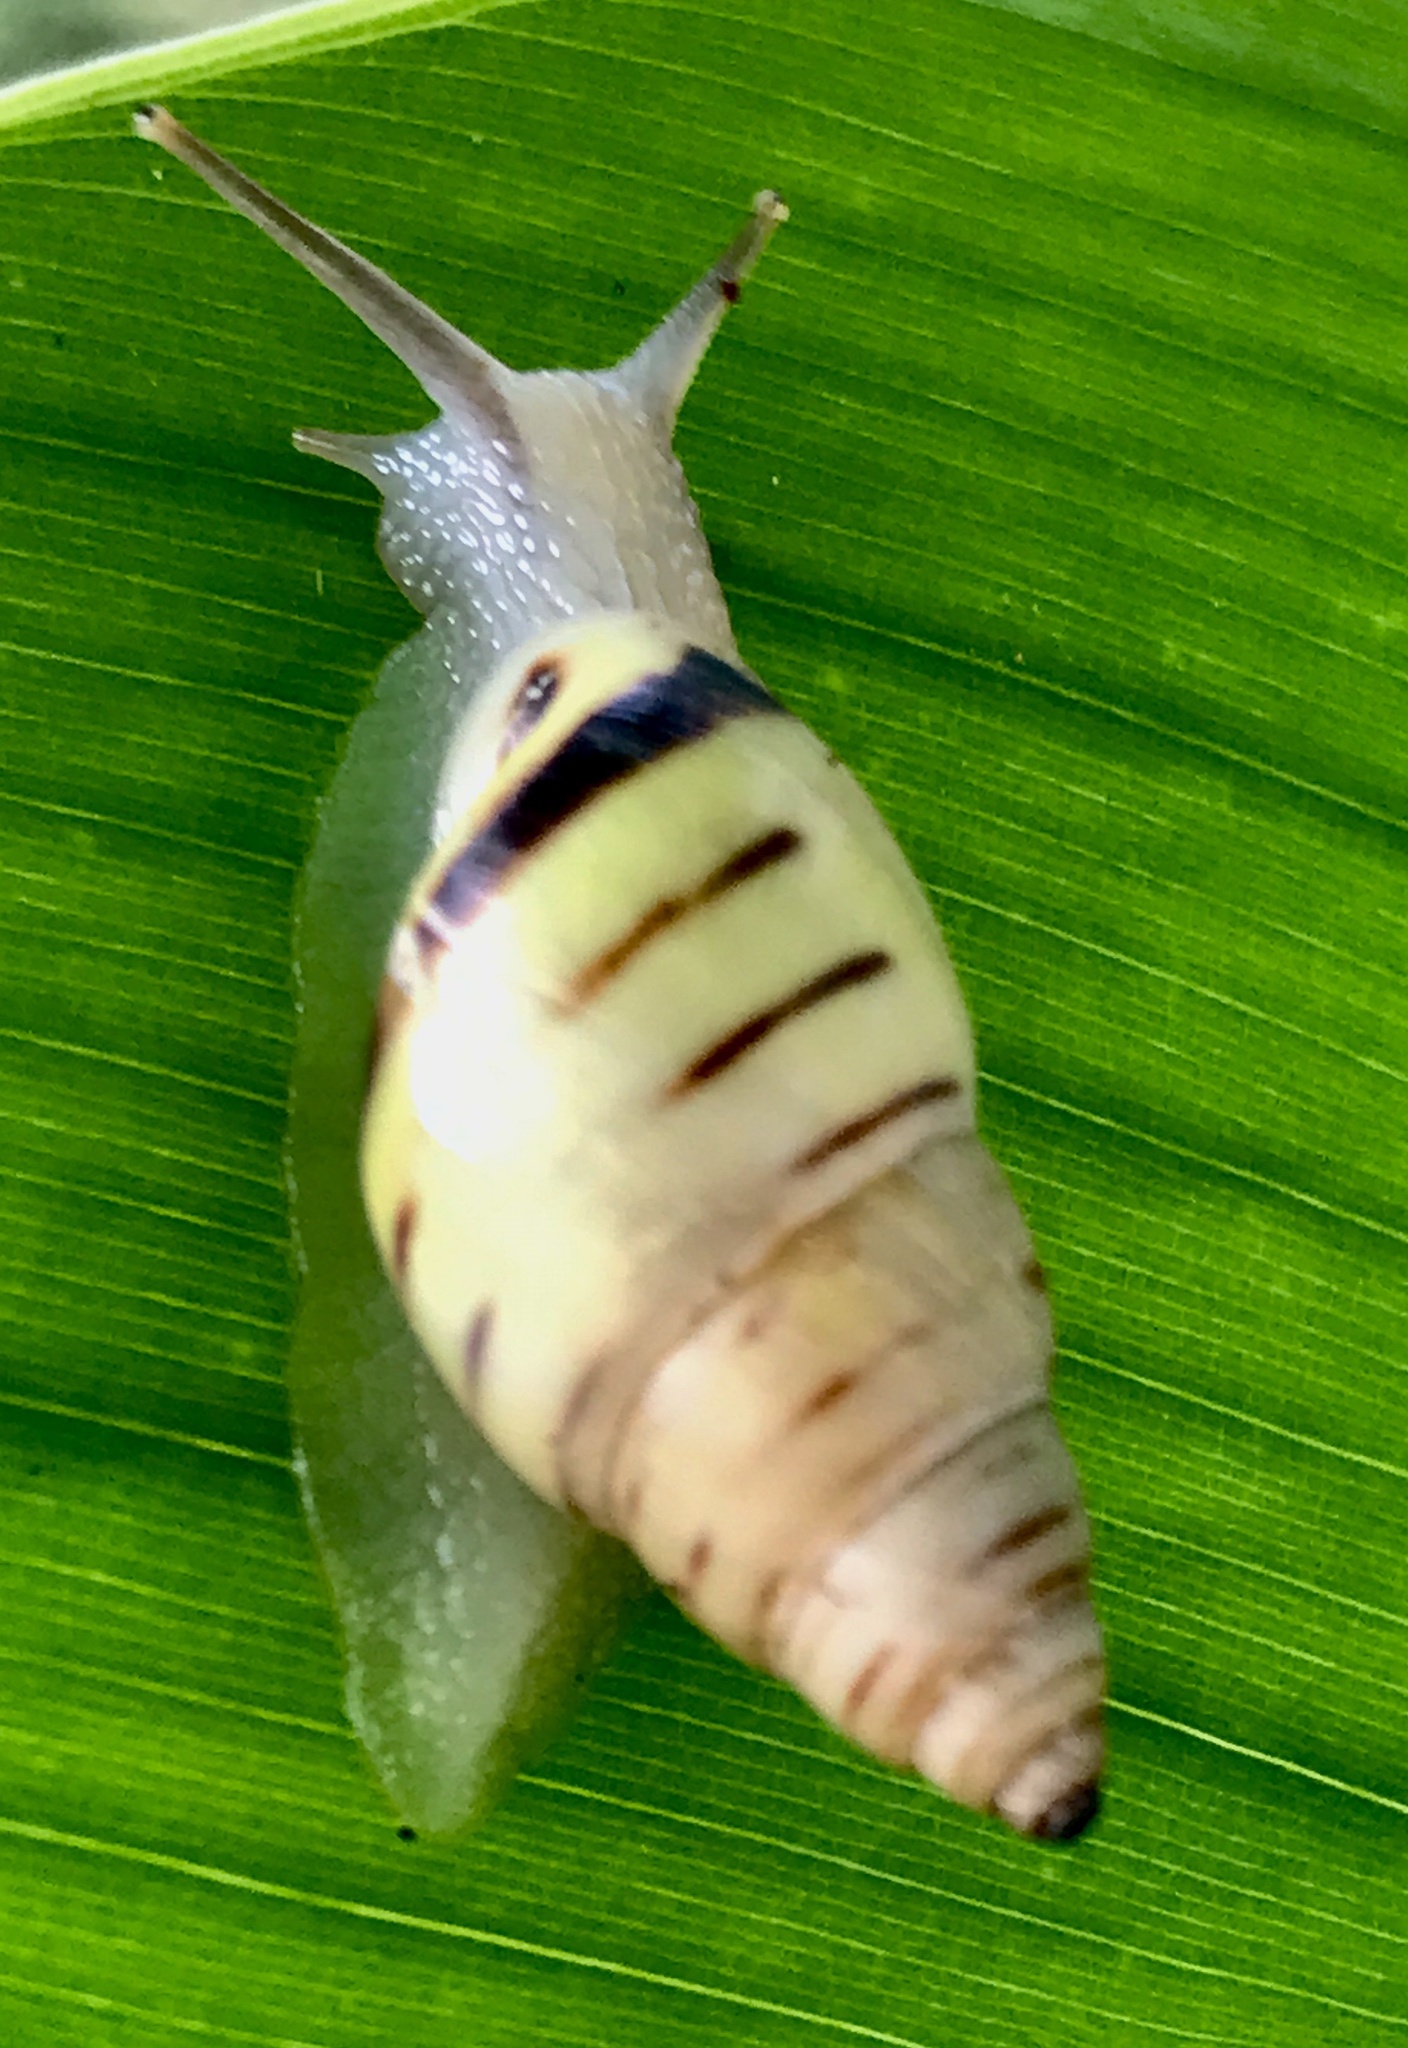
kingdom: Animalia
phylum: Mollusca
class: Gastropoda
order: Stylommatophora
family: Bulimulidae
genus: Drymaeus
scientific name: Drymaeus
